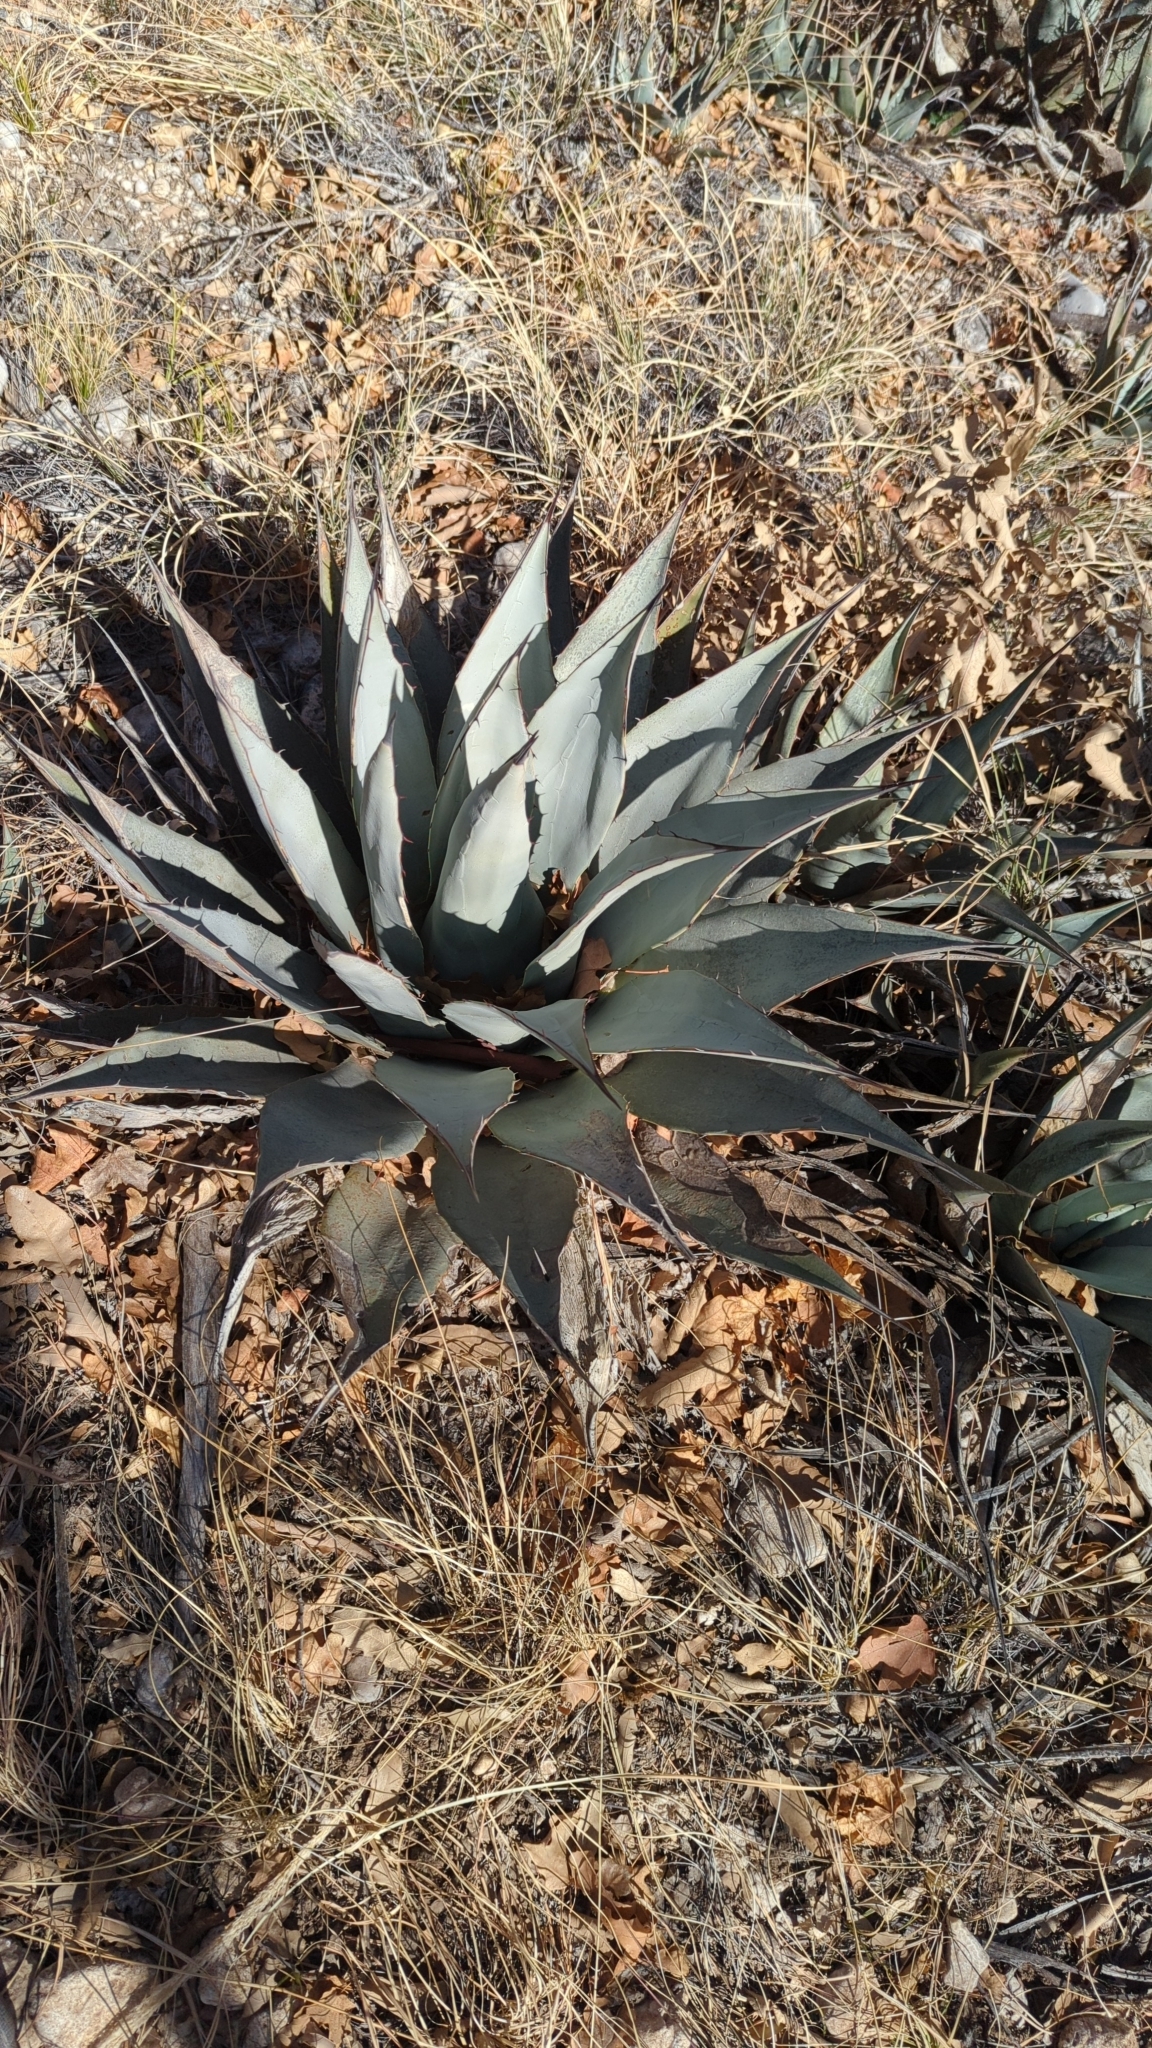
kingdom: Plantae
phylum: Tracheophyta
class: Liliopsida
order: Asparagales
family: Asparagaceae
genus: Agave
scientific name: Agave parryi
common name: Parry's agave
